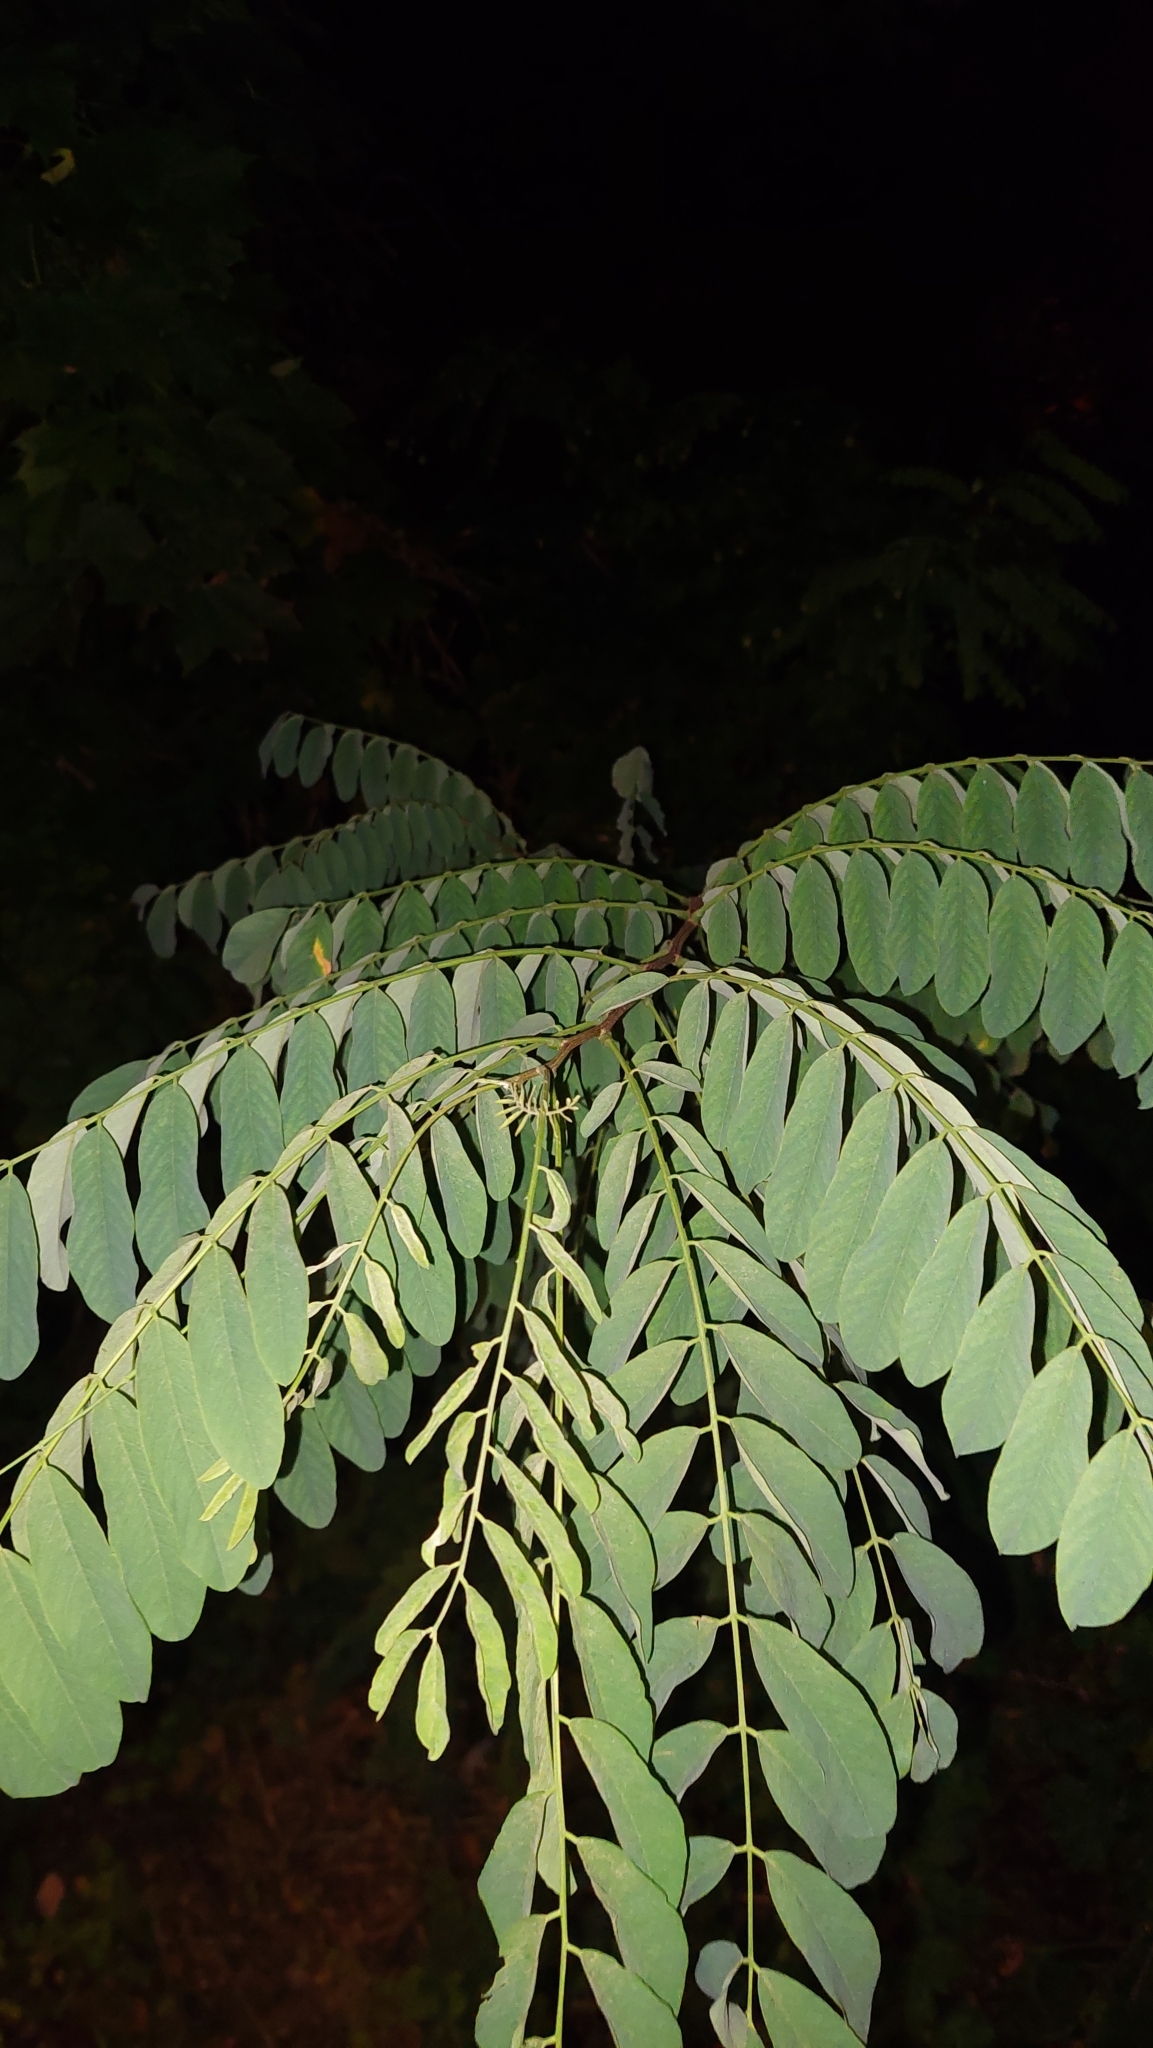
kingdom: Plantae
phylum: Tracheophyta
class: Magnoliopsida
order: Fabales
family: Fabaceae
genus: Robinia
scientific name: Robinia pseudoacacia
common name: Black locust
